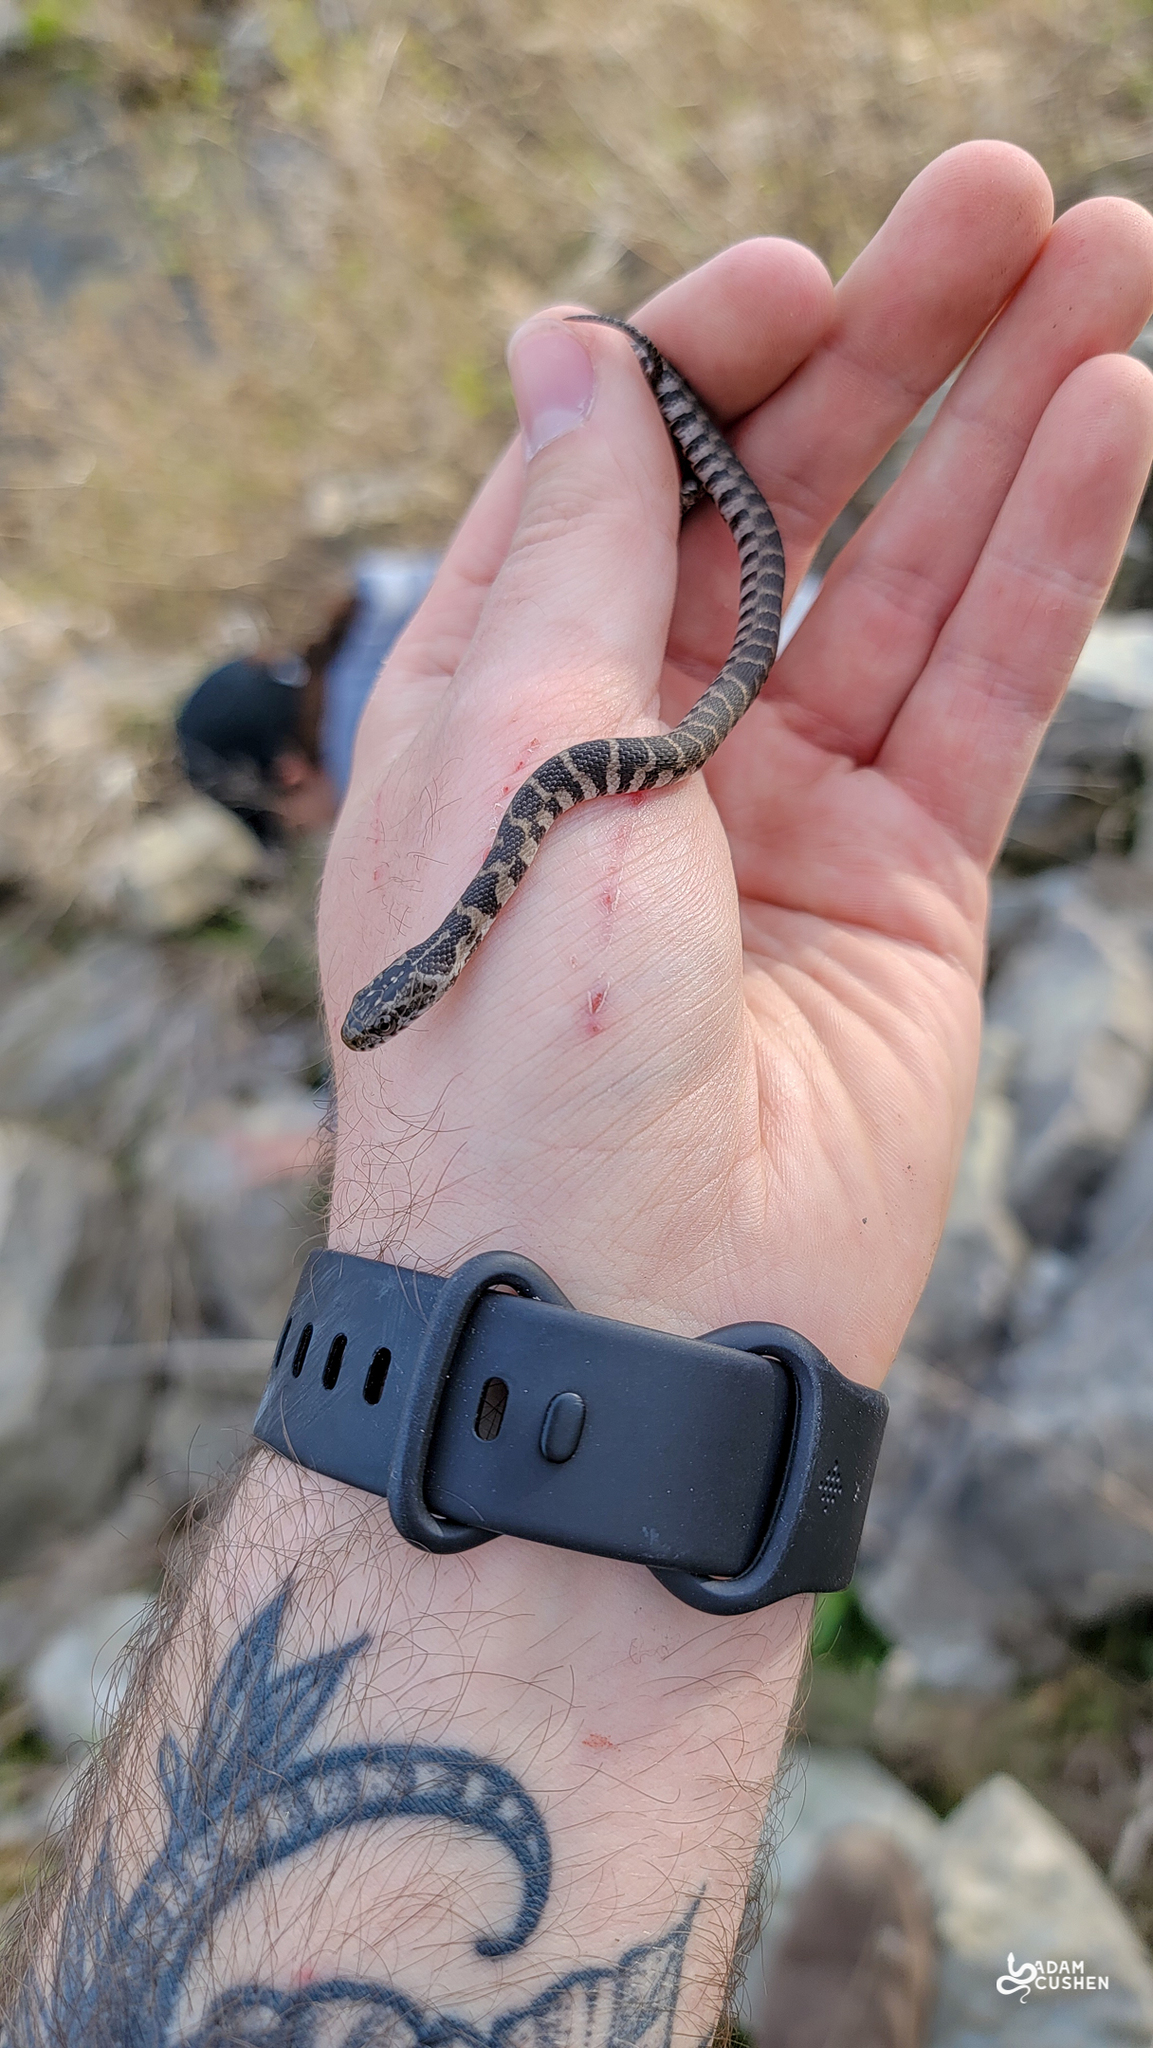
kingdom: Animalia
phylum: Chordata
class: Squamata
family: Colubridae
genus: Nerodia
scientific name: Nerodia sipedon
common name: Northern water snake
